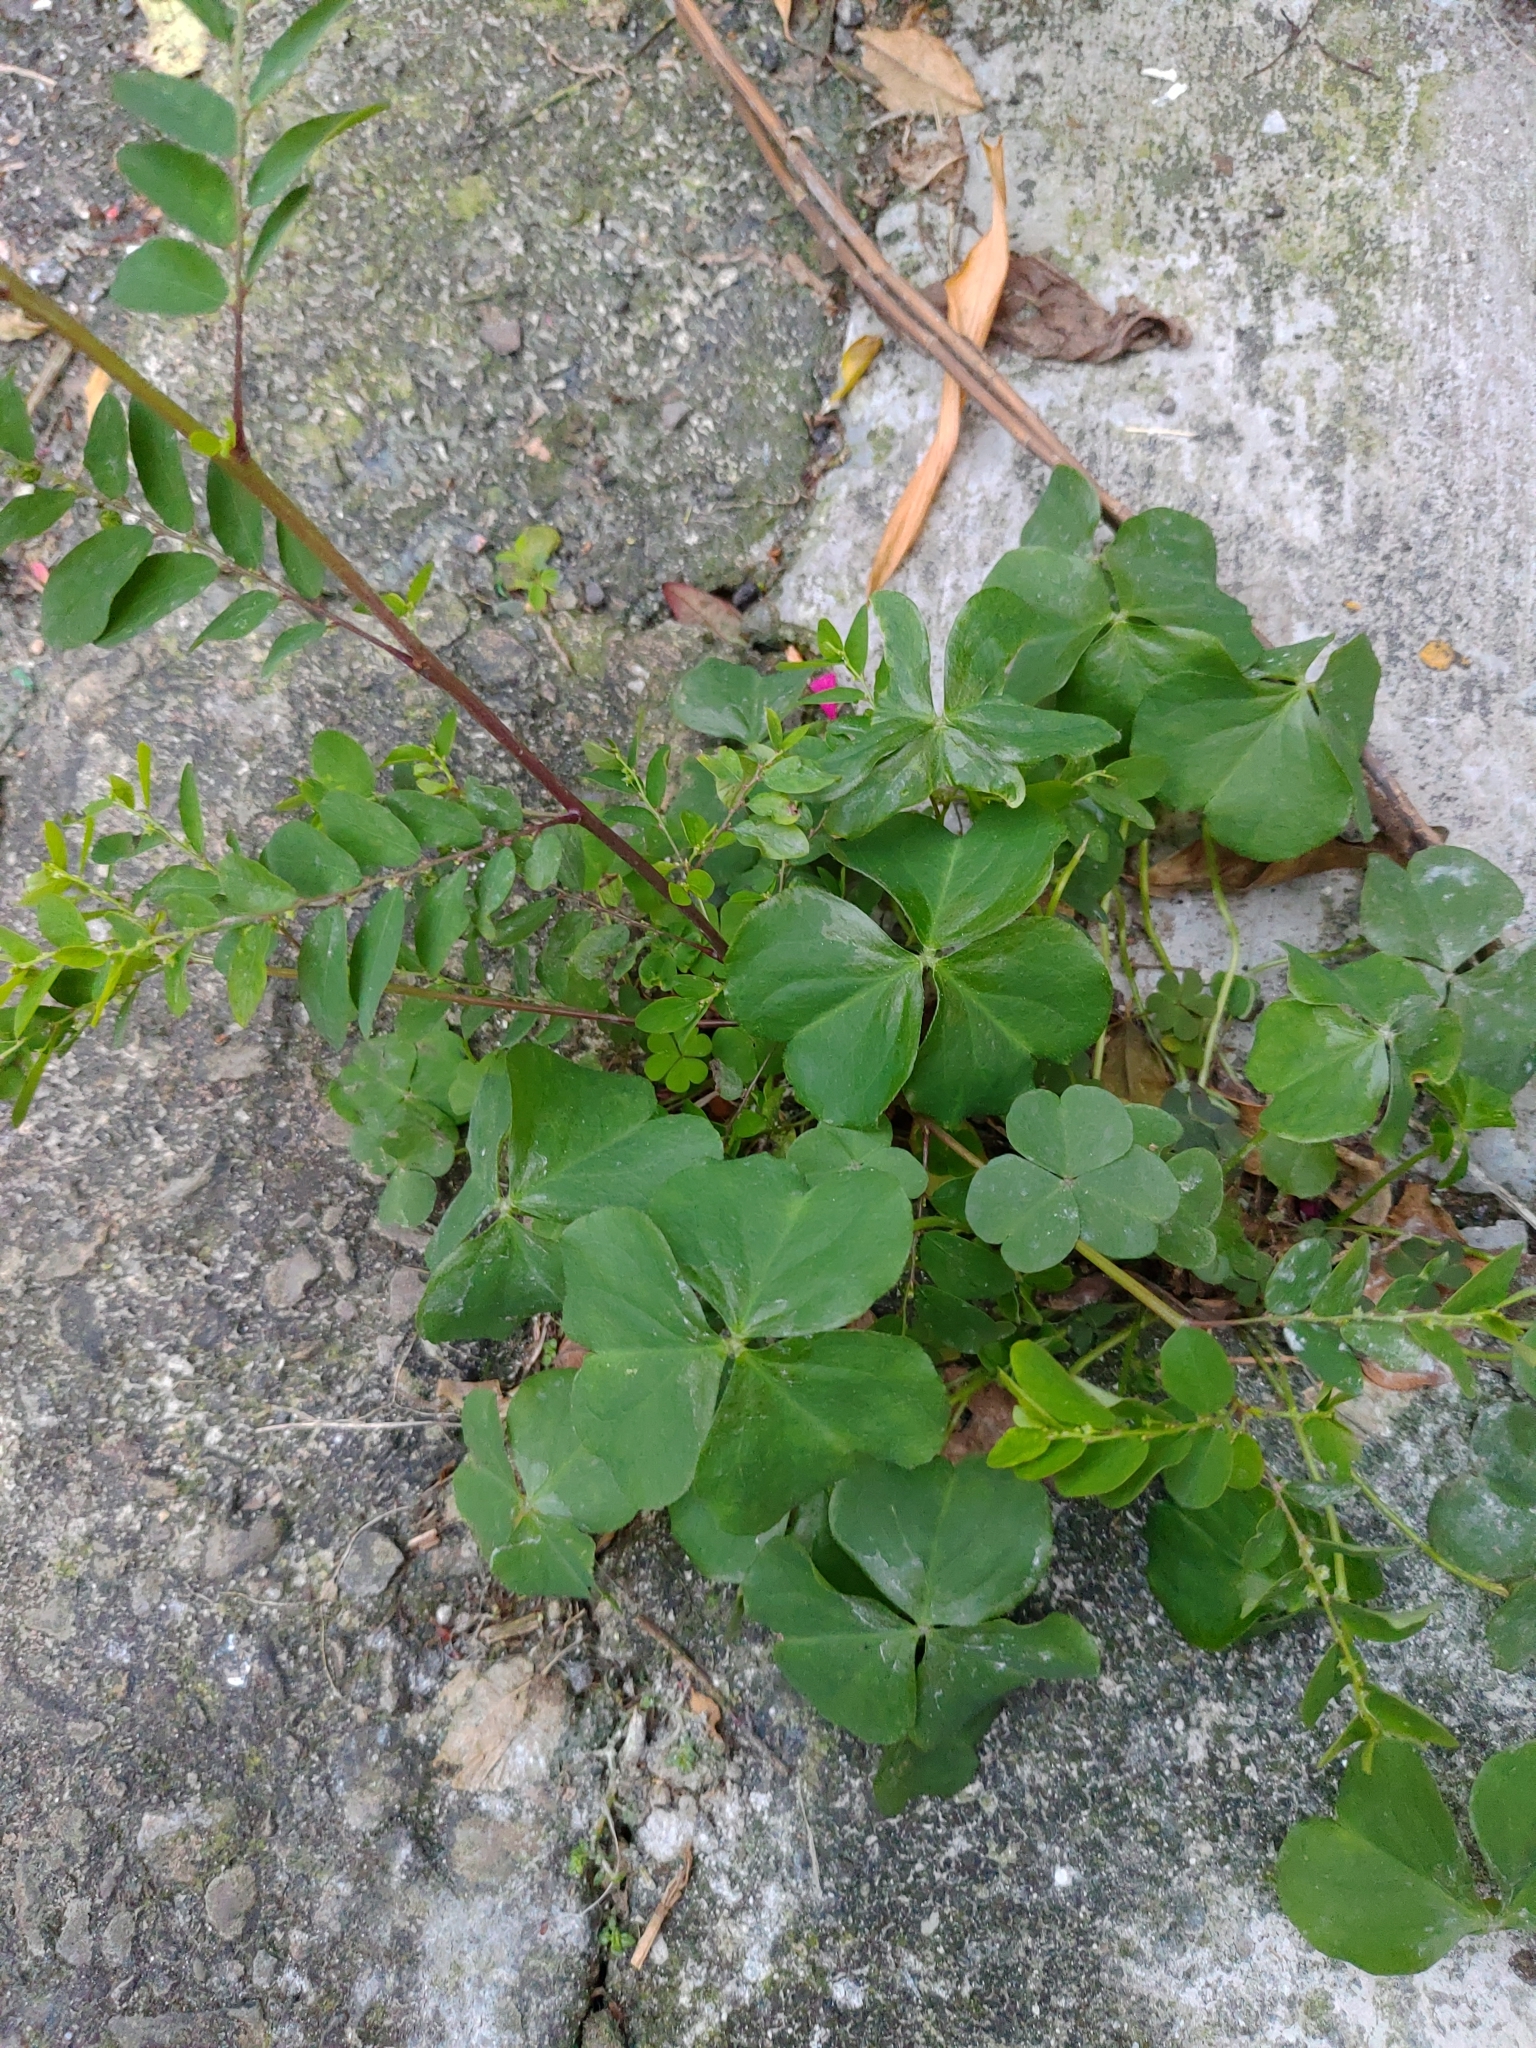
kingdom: Plantae
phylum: Tracheophyta
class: Magnoliopsida
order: Oxalidales
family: Oxalidaceae
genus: Oxalis
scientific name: Oxalis debilis
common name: Large-flowered pink-sorrel
